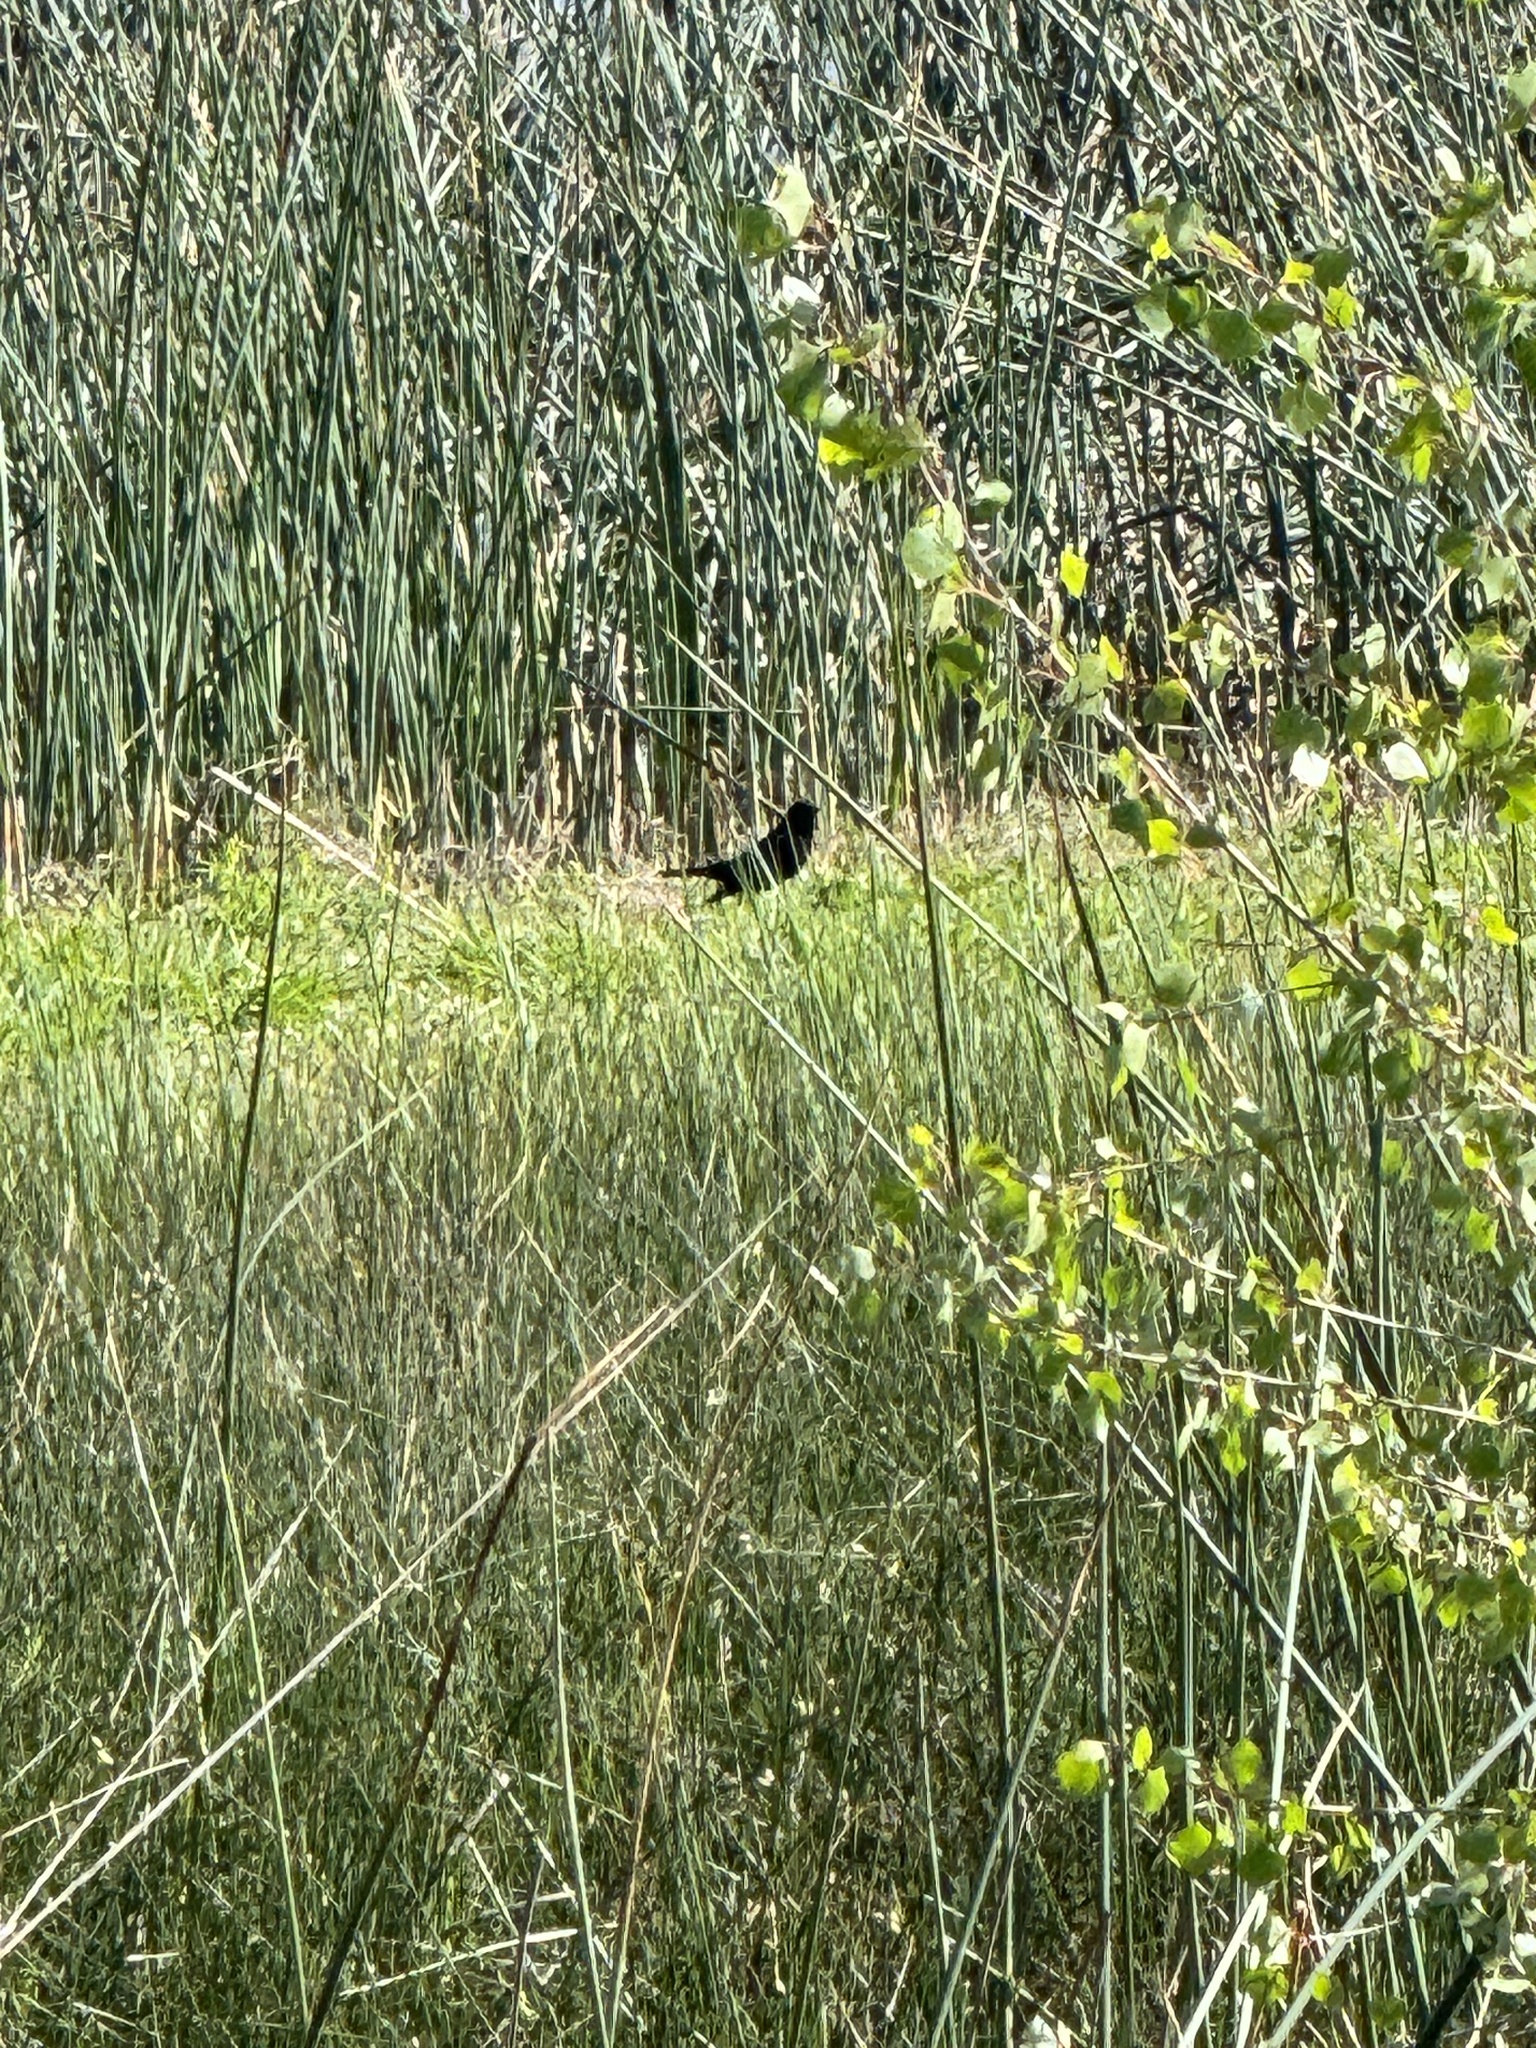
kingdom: Animalia
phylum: Chordata
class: Aves
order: Passeriformes
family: Icteridae
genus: Agelaius
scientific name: Agelaius phoeniceus
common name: Red-winged blackbird
